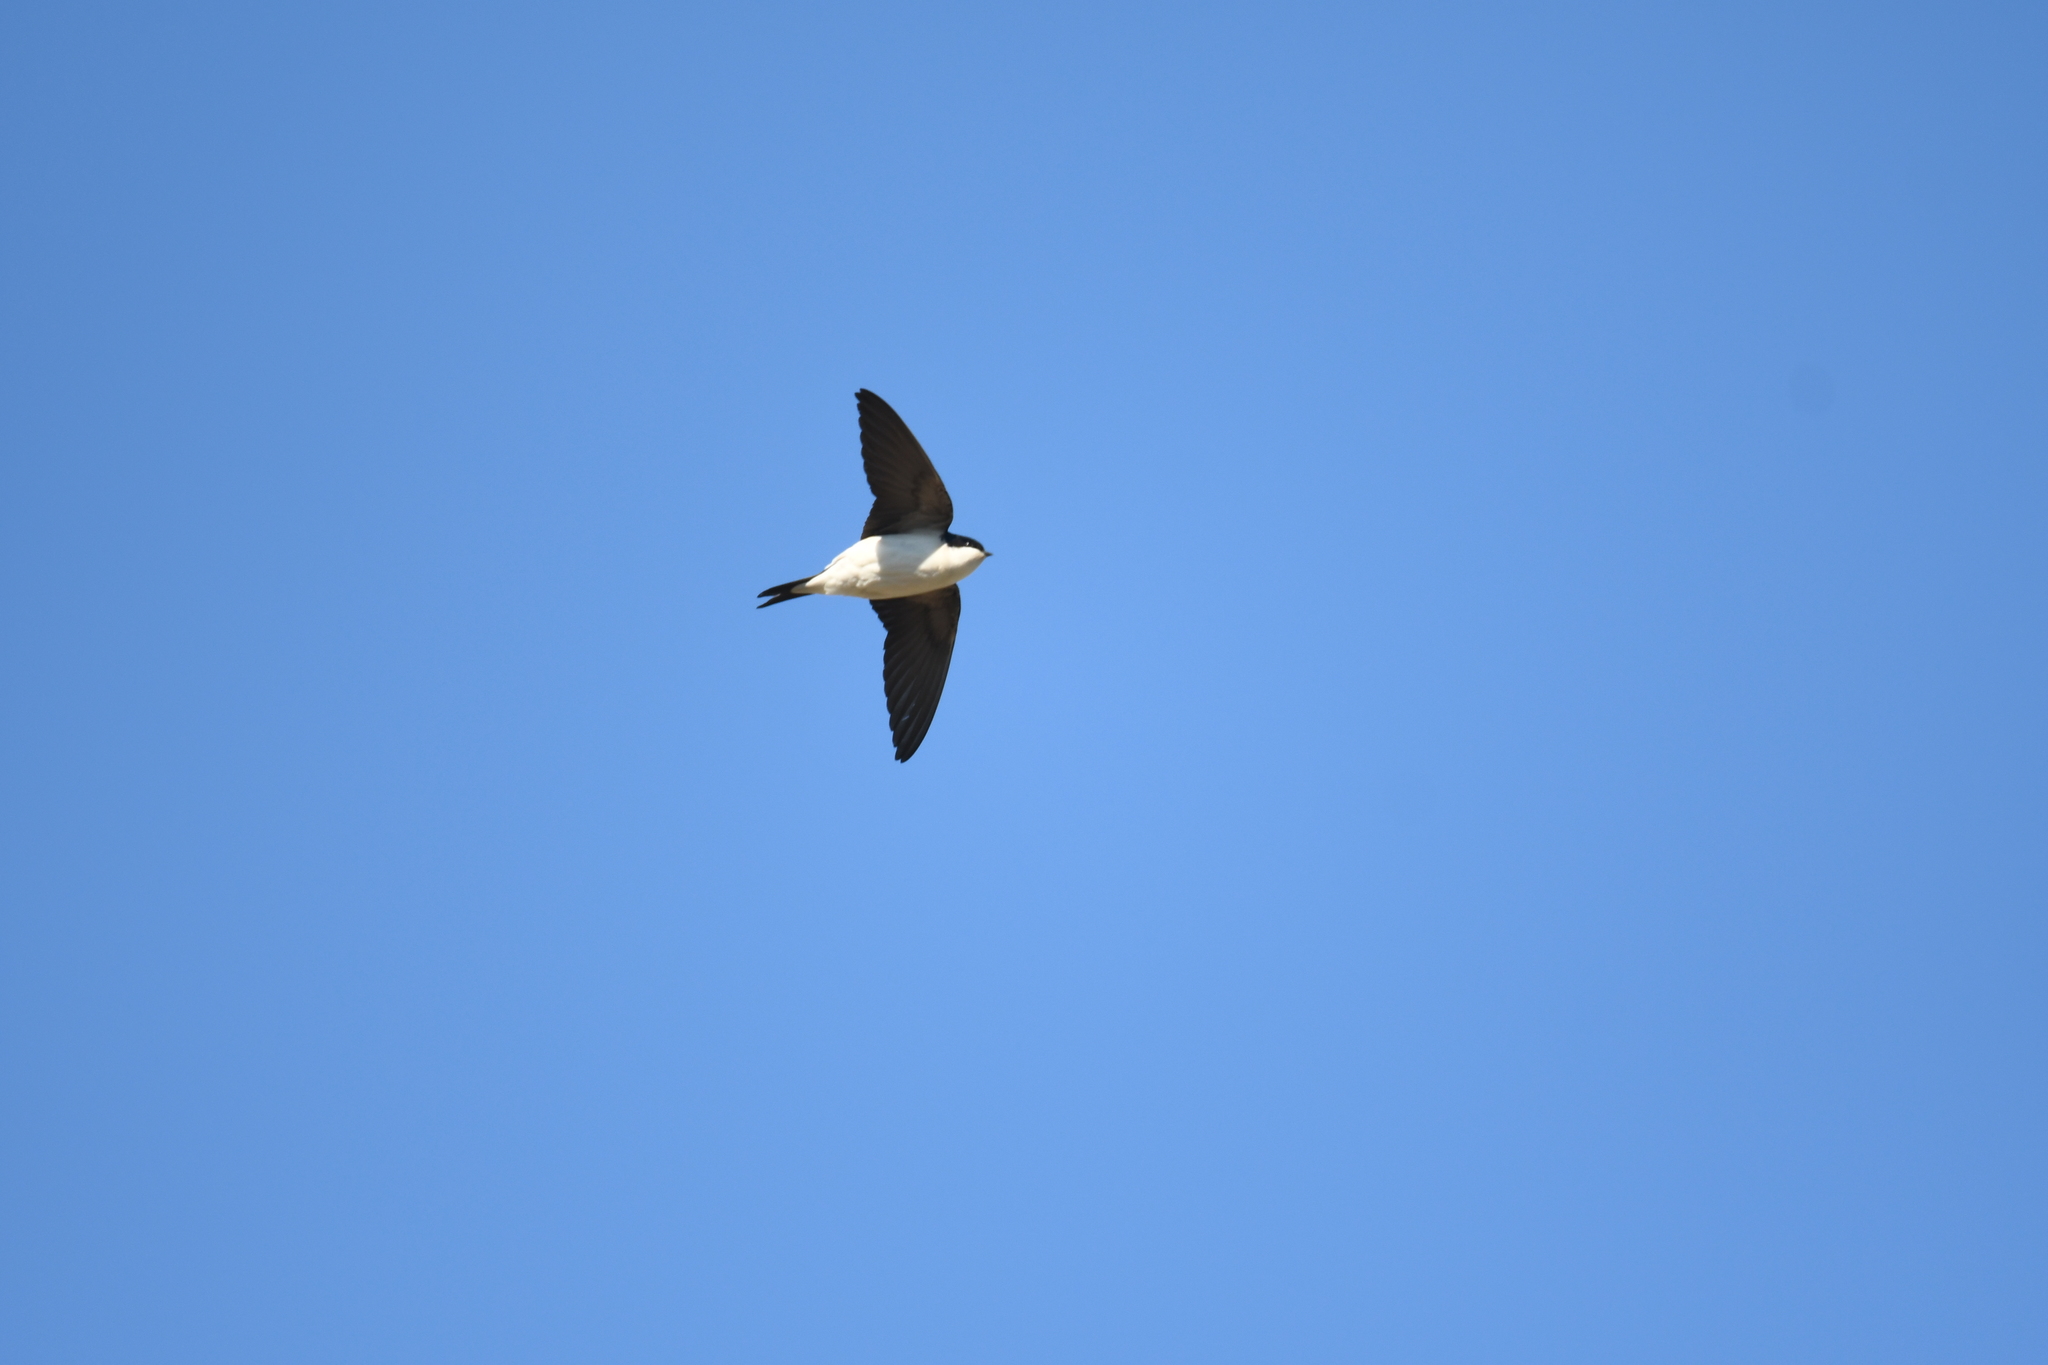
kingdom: Animalia
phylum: Chordata
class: Aves
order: Passeriformes
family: Hirundinidae
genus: Delichon
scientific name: Delichon urbicum
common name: Common house martin
